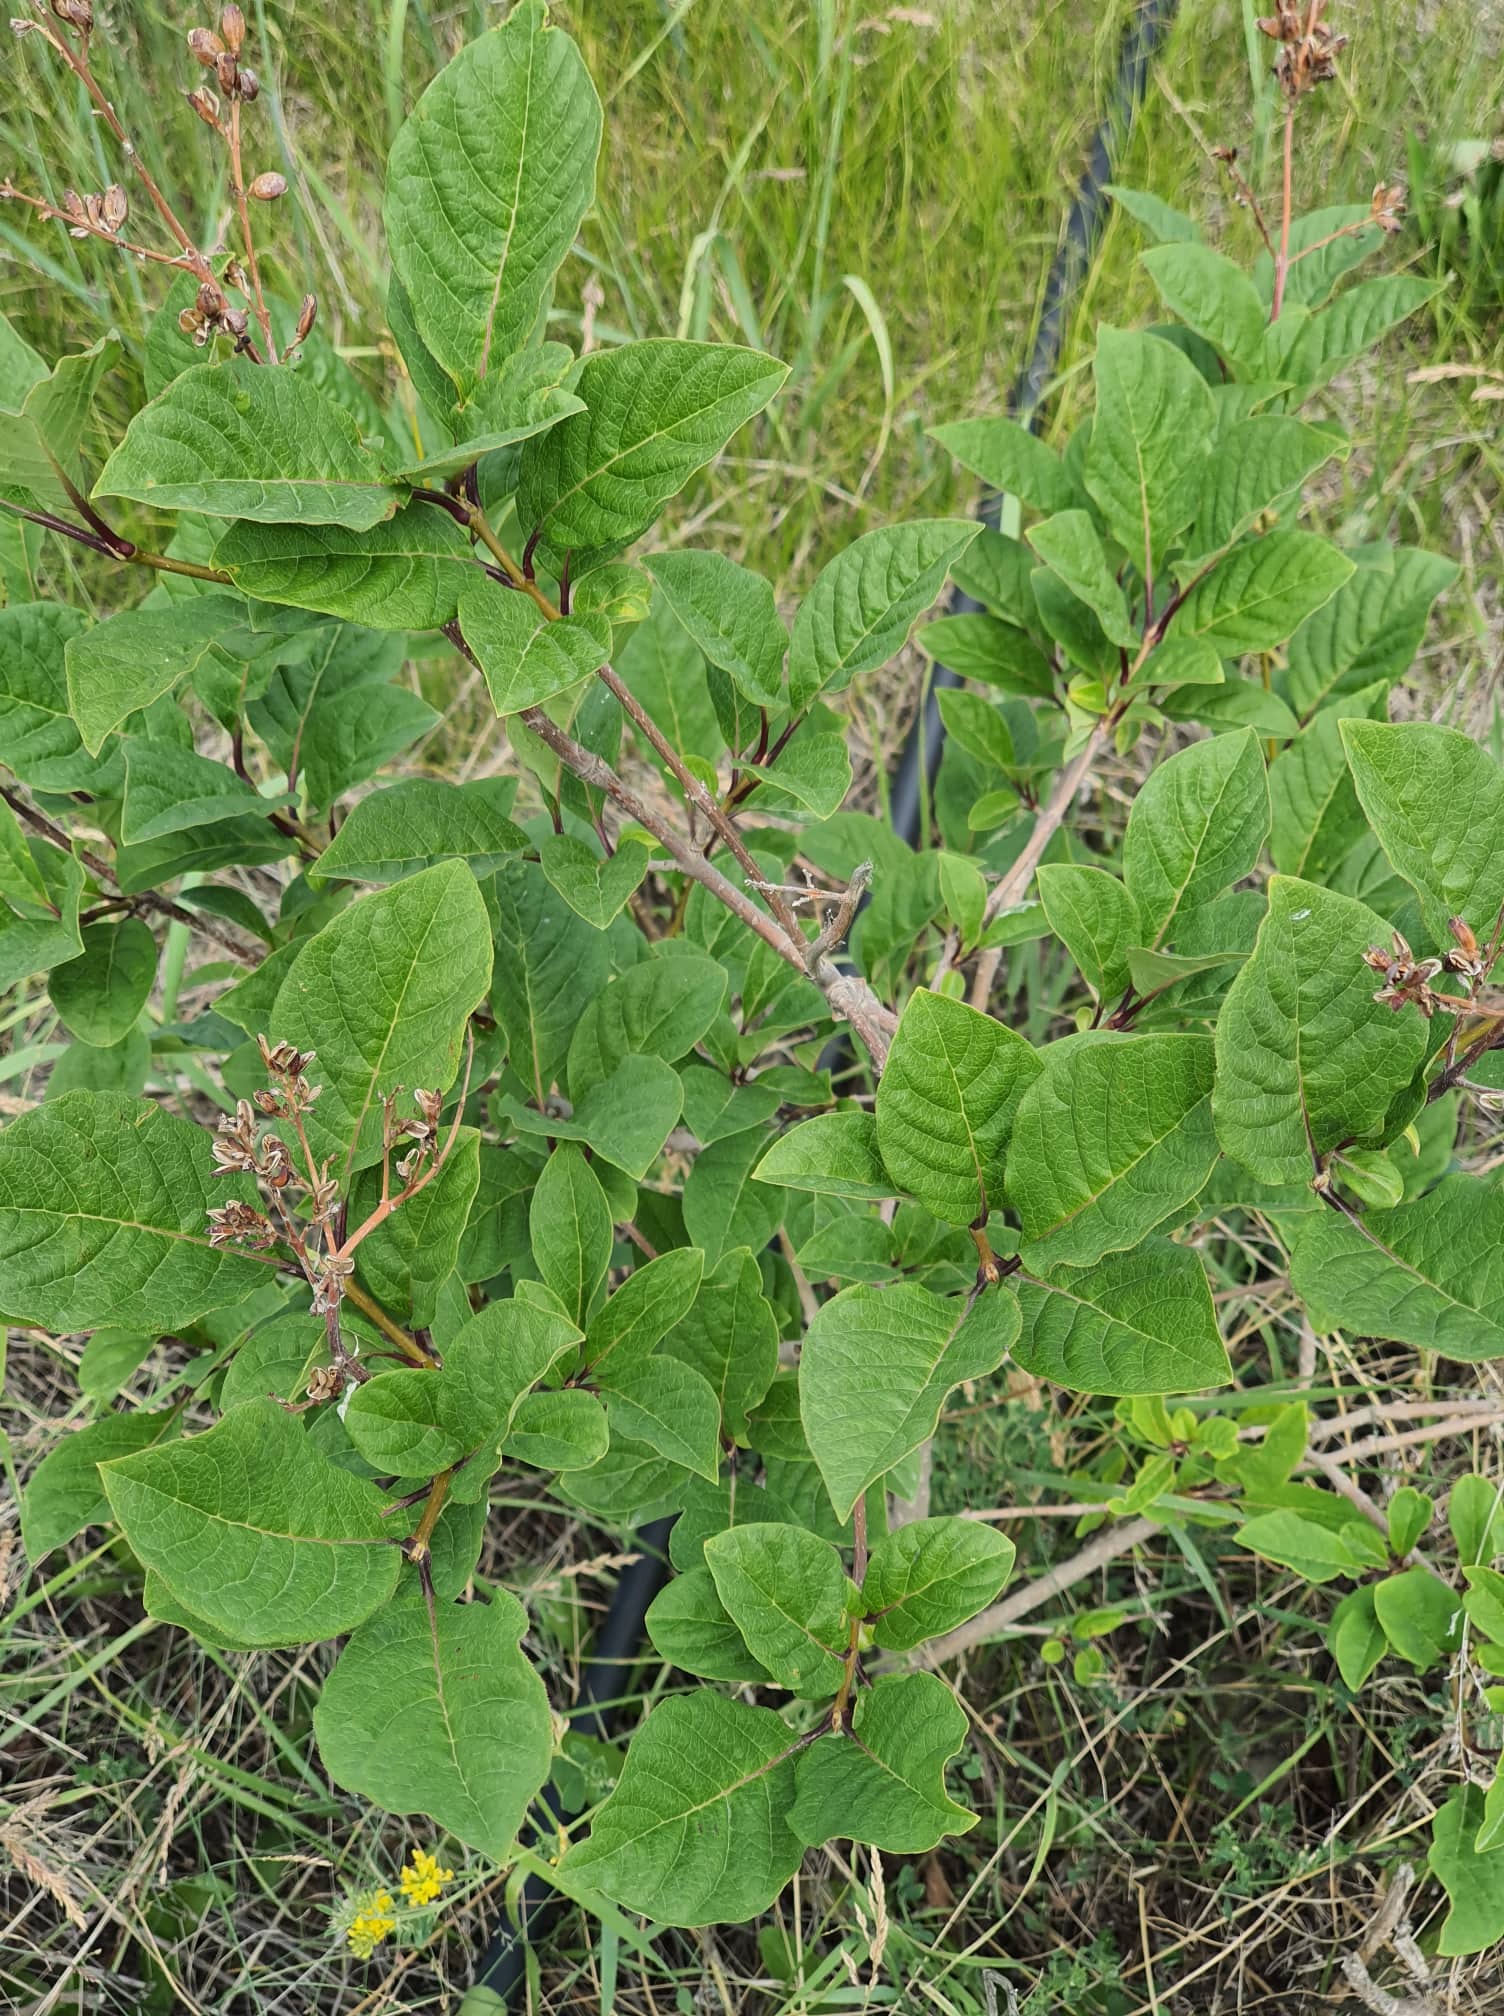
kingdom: Plantae
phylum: Tracheophyta
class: Magnoliopsida
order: Rosales
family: Rosaceae
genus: Prunus
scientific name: Prunus padus
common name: Bird cherry
